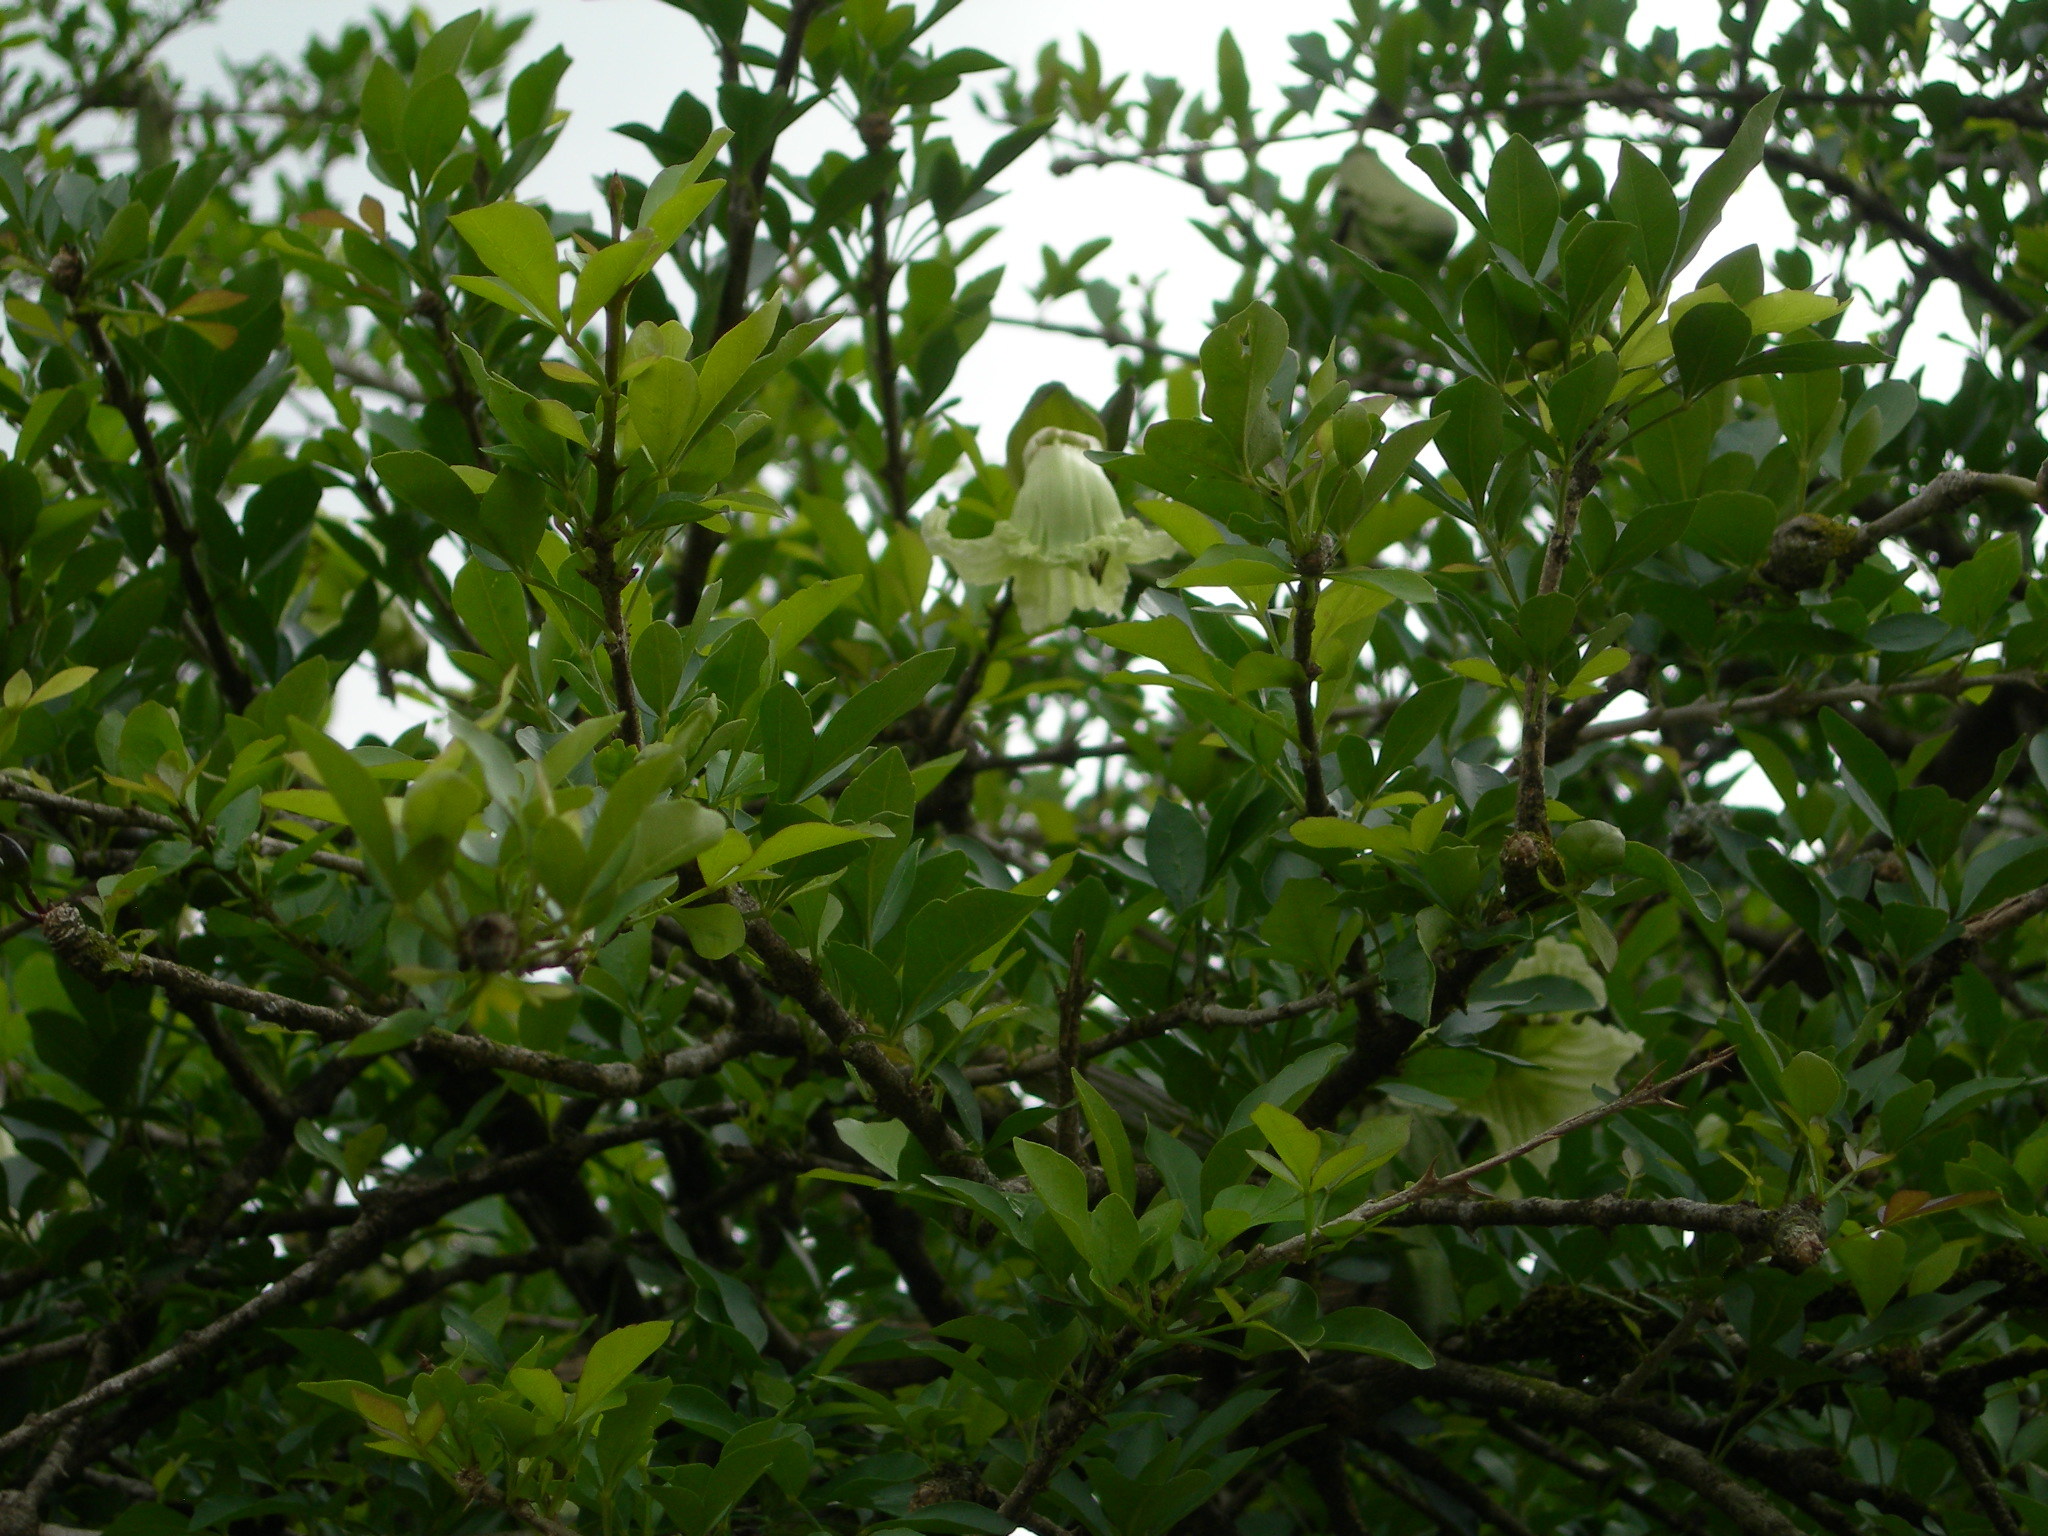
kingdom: Plantae
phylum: Tracheophyta
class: Magnoliopsida
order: Lamiales
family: Bignoniaceae
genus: Parmentiera
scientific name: Parmentiera aculeata
